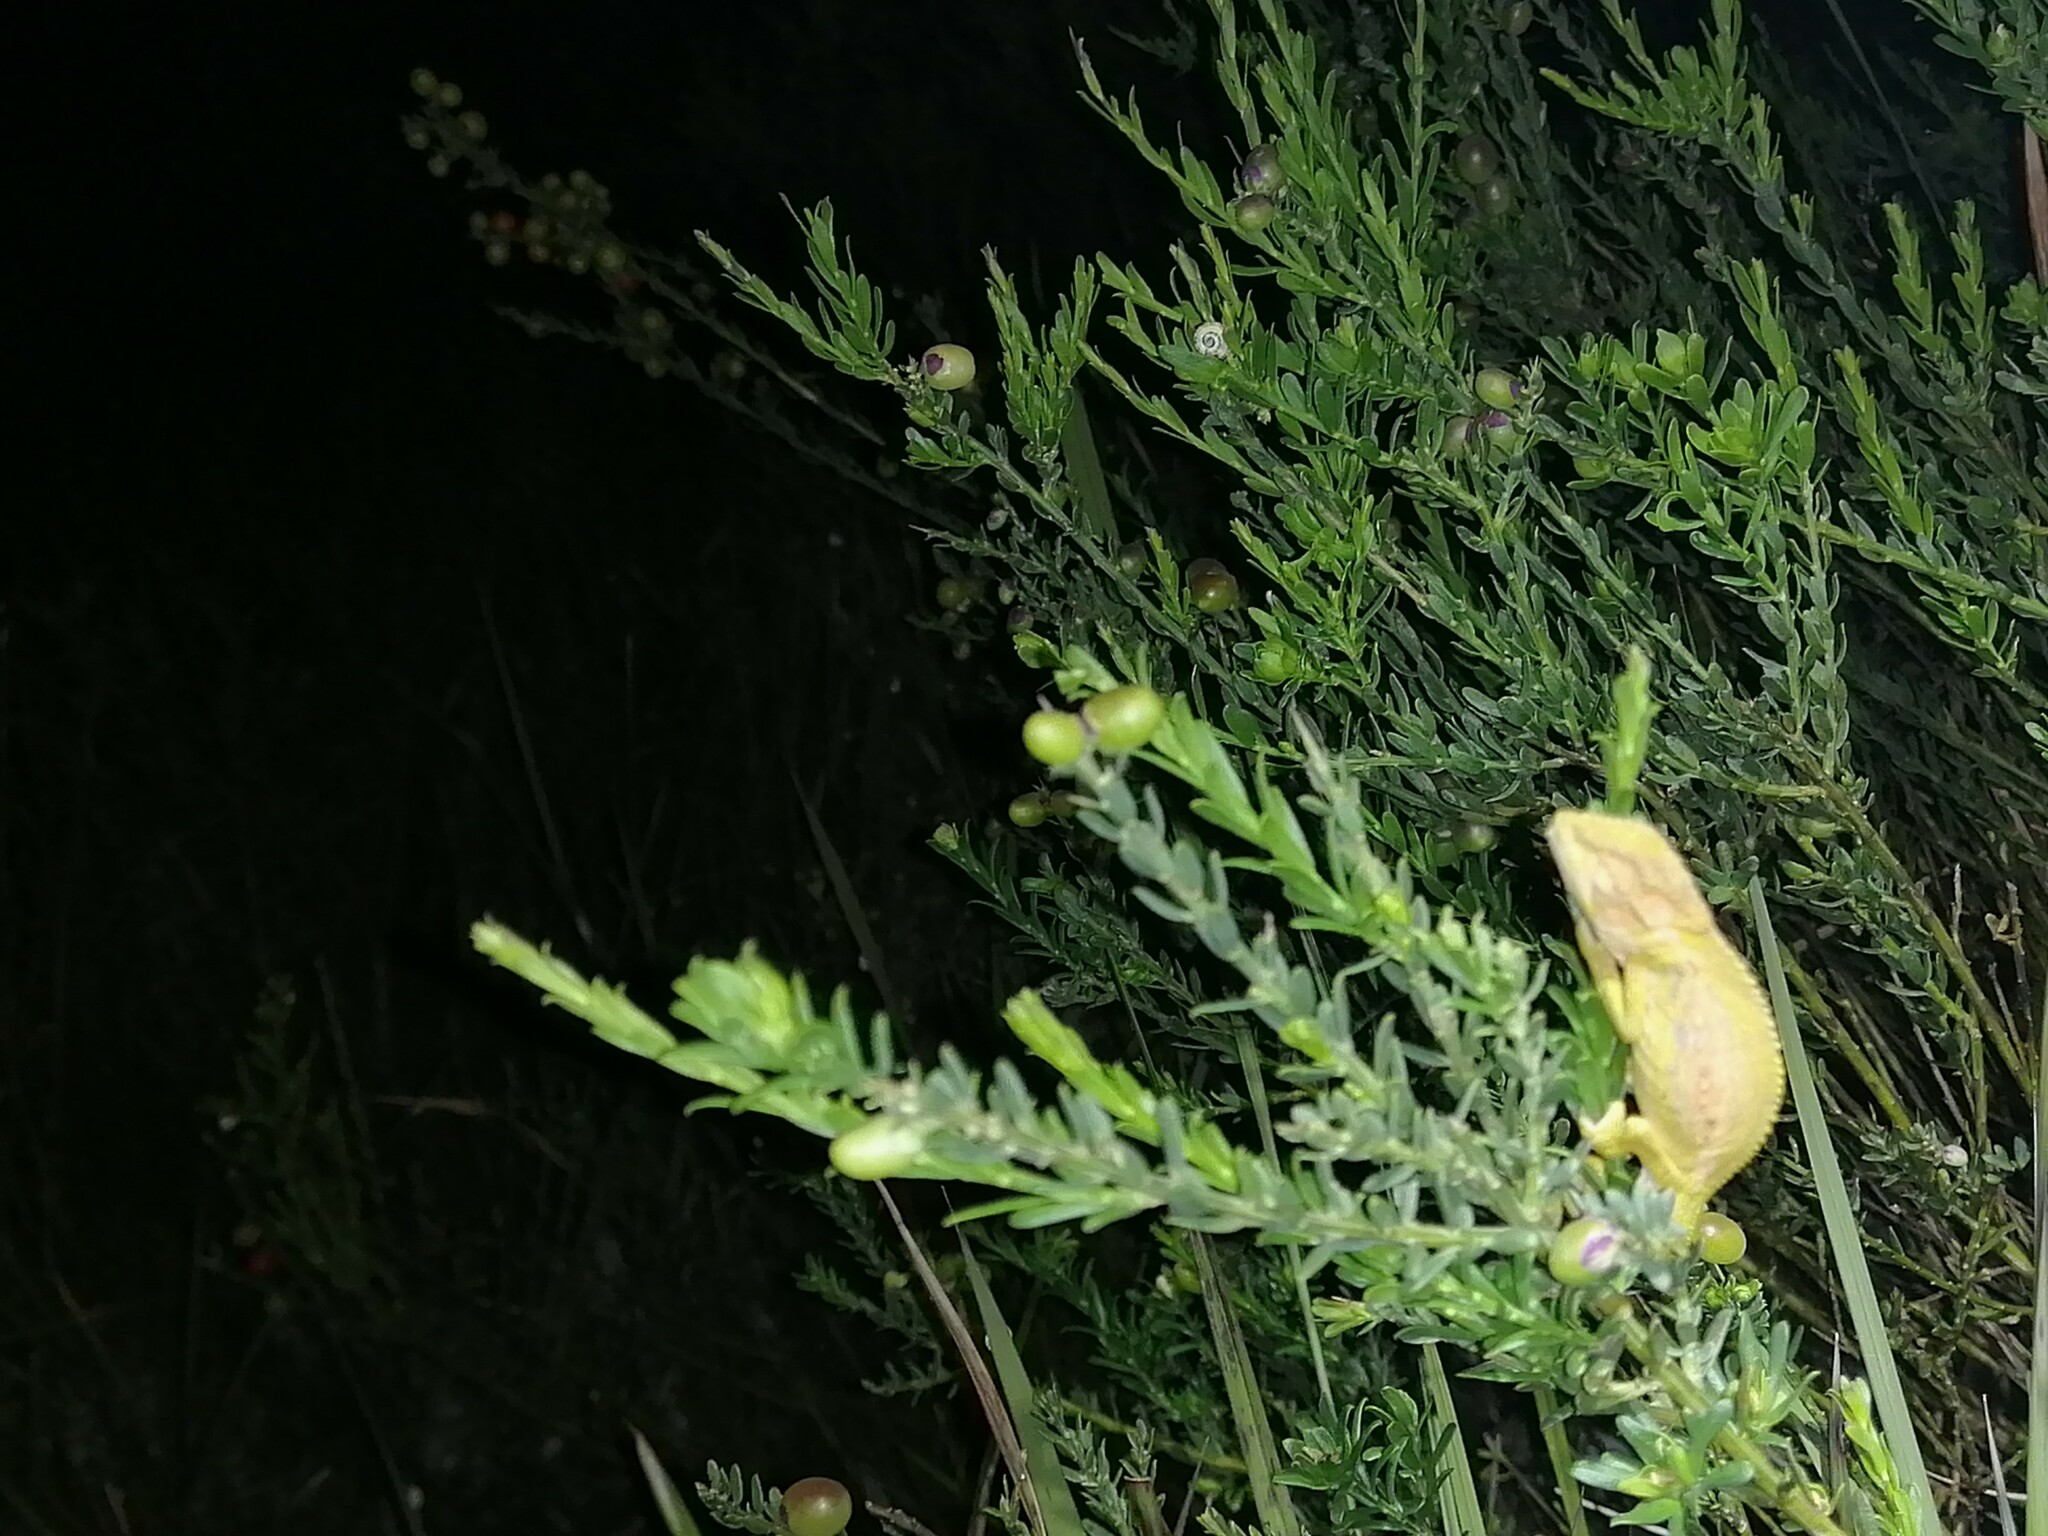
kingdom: Animalia
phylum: Chordata
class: Squamata
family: Chamaeleonidae
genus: Bradypodion
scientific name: Bradypodion pumilum
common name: Cape dwarf chameleon
